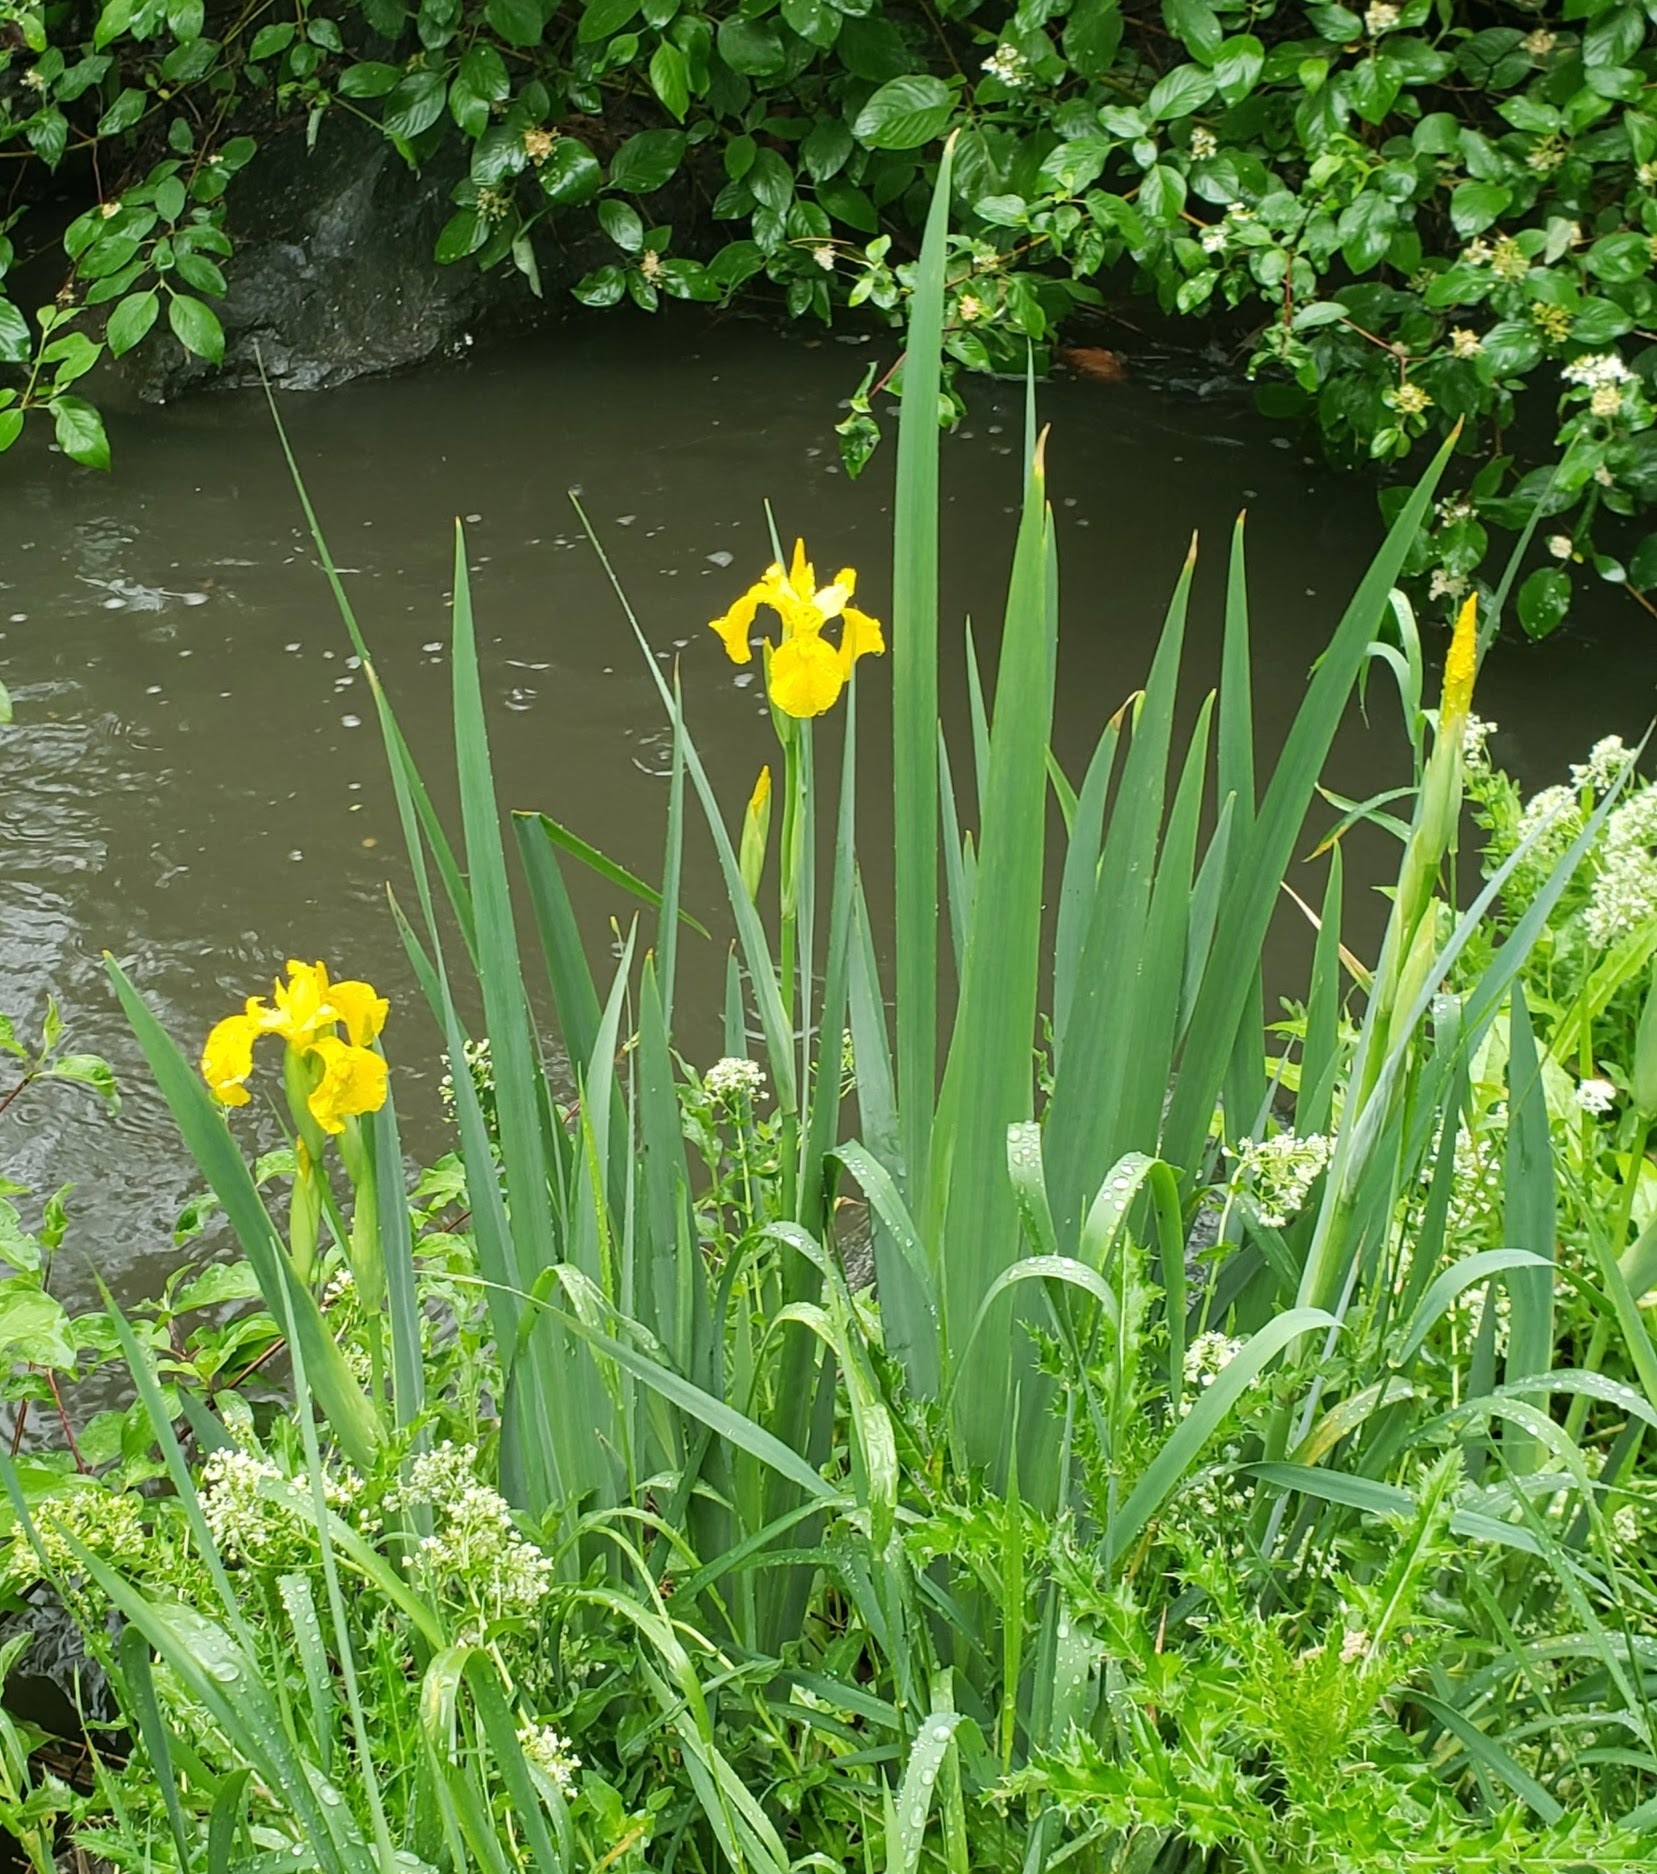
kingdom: Plantae
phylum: Tracheophyta
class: Liliopsida
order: Asparagales
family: Iridaceae
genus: Iris
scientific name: Iris pseudacorus
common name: Yellow flag
